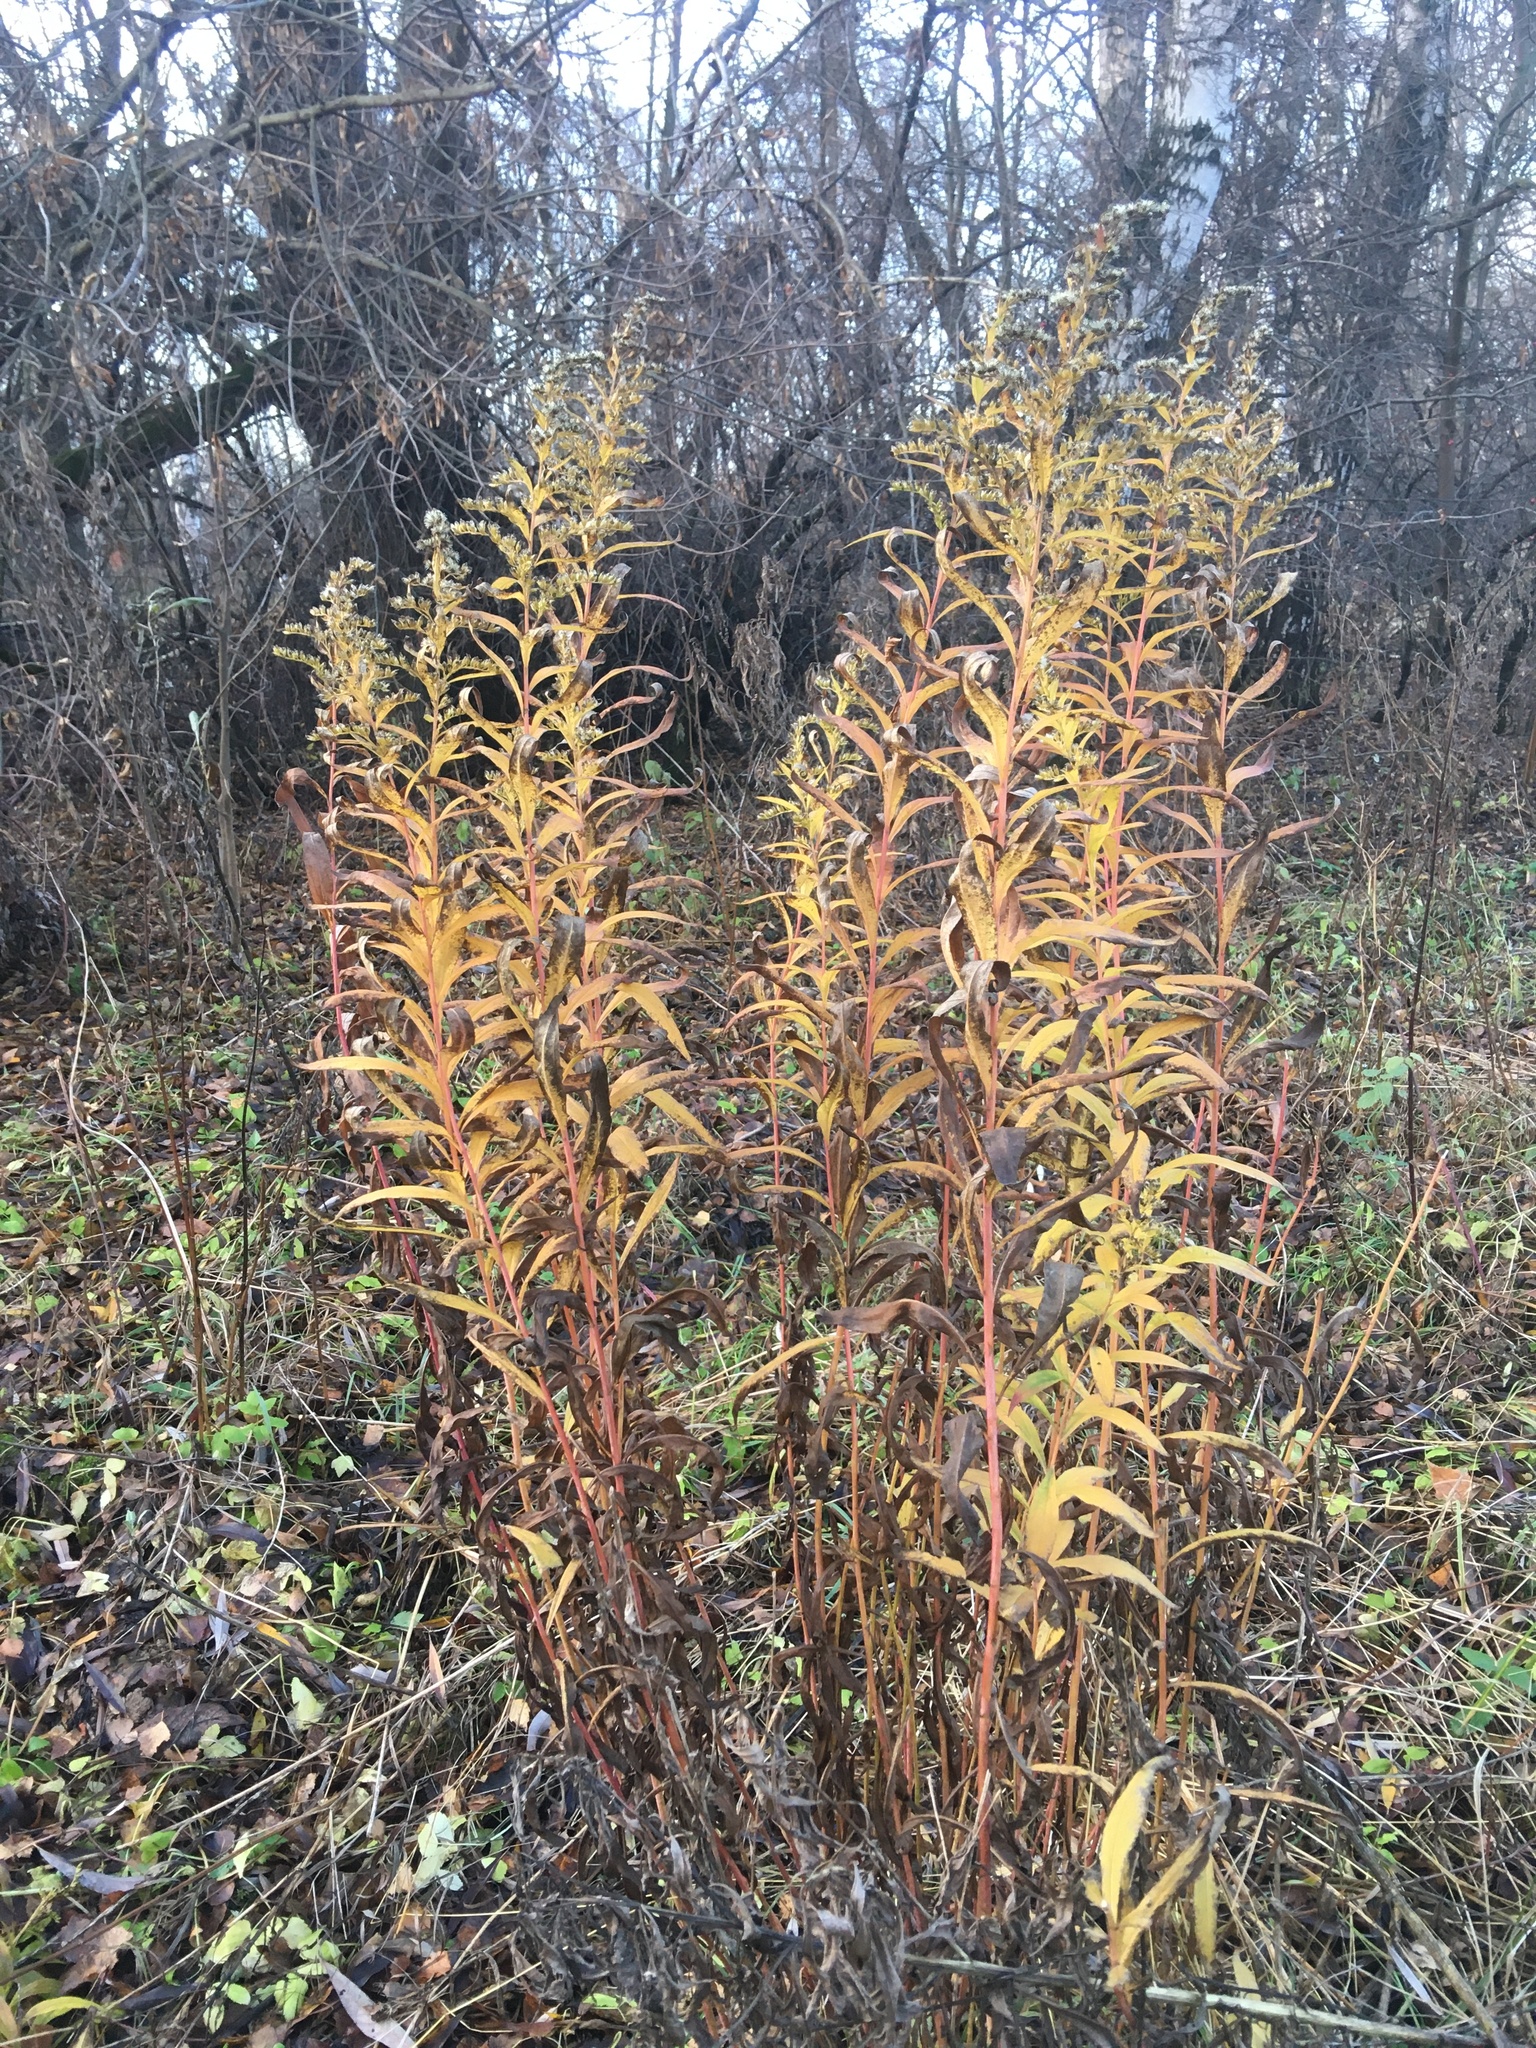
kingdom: Plantae
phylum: Tracheophyta
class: Magnoliopsida
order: Asterales
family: Asteraceae
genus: Solidago
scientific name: Solidago canadensis
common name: Canada goldenrod
